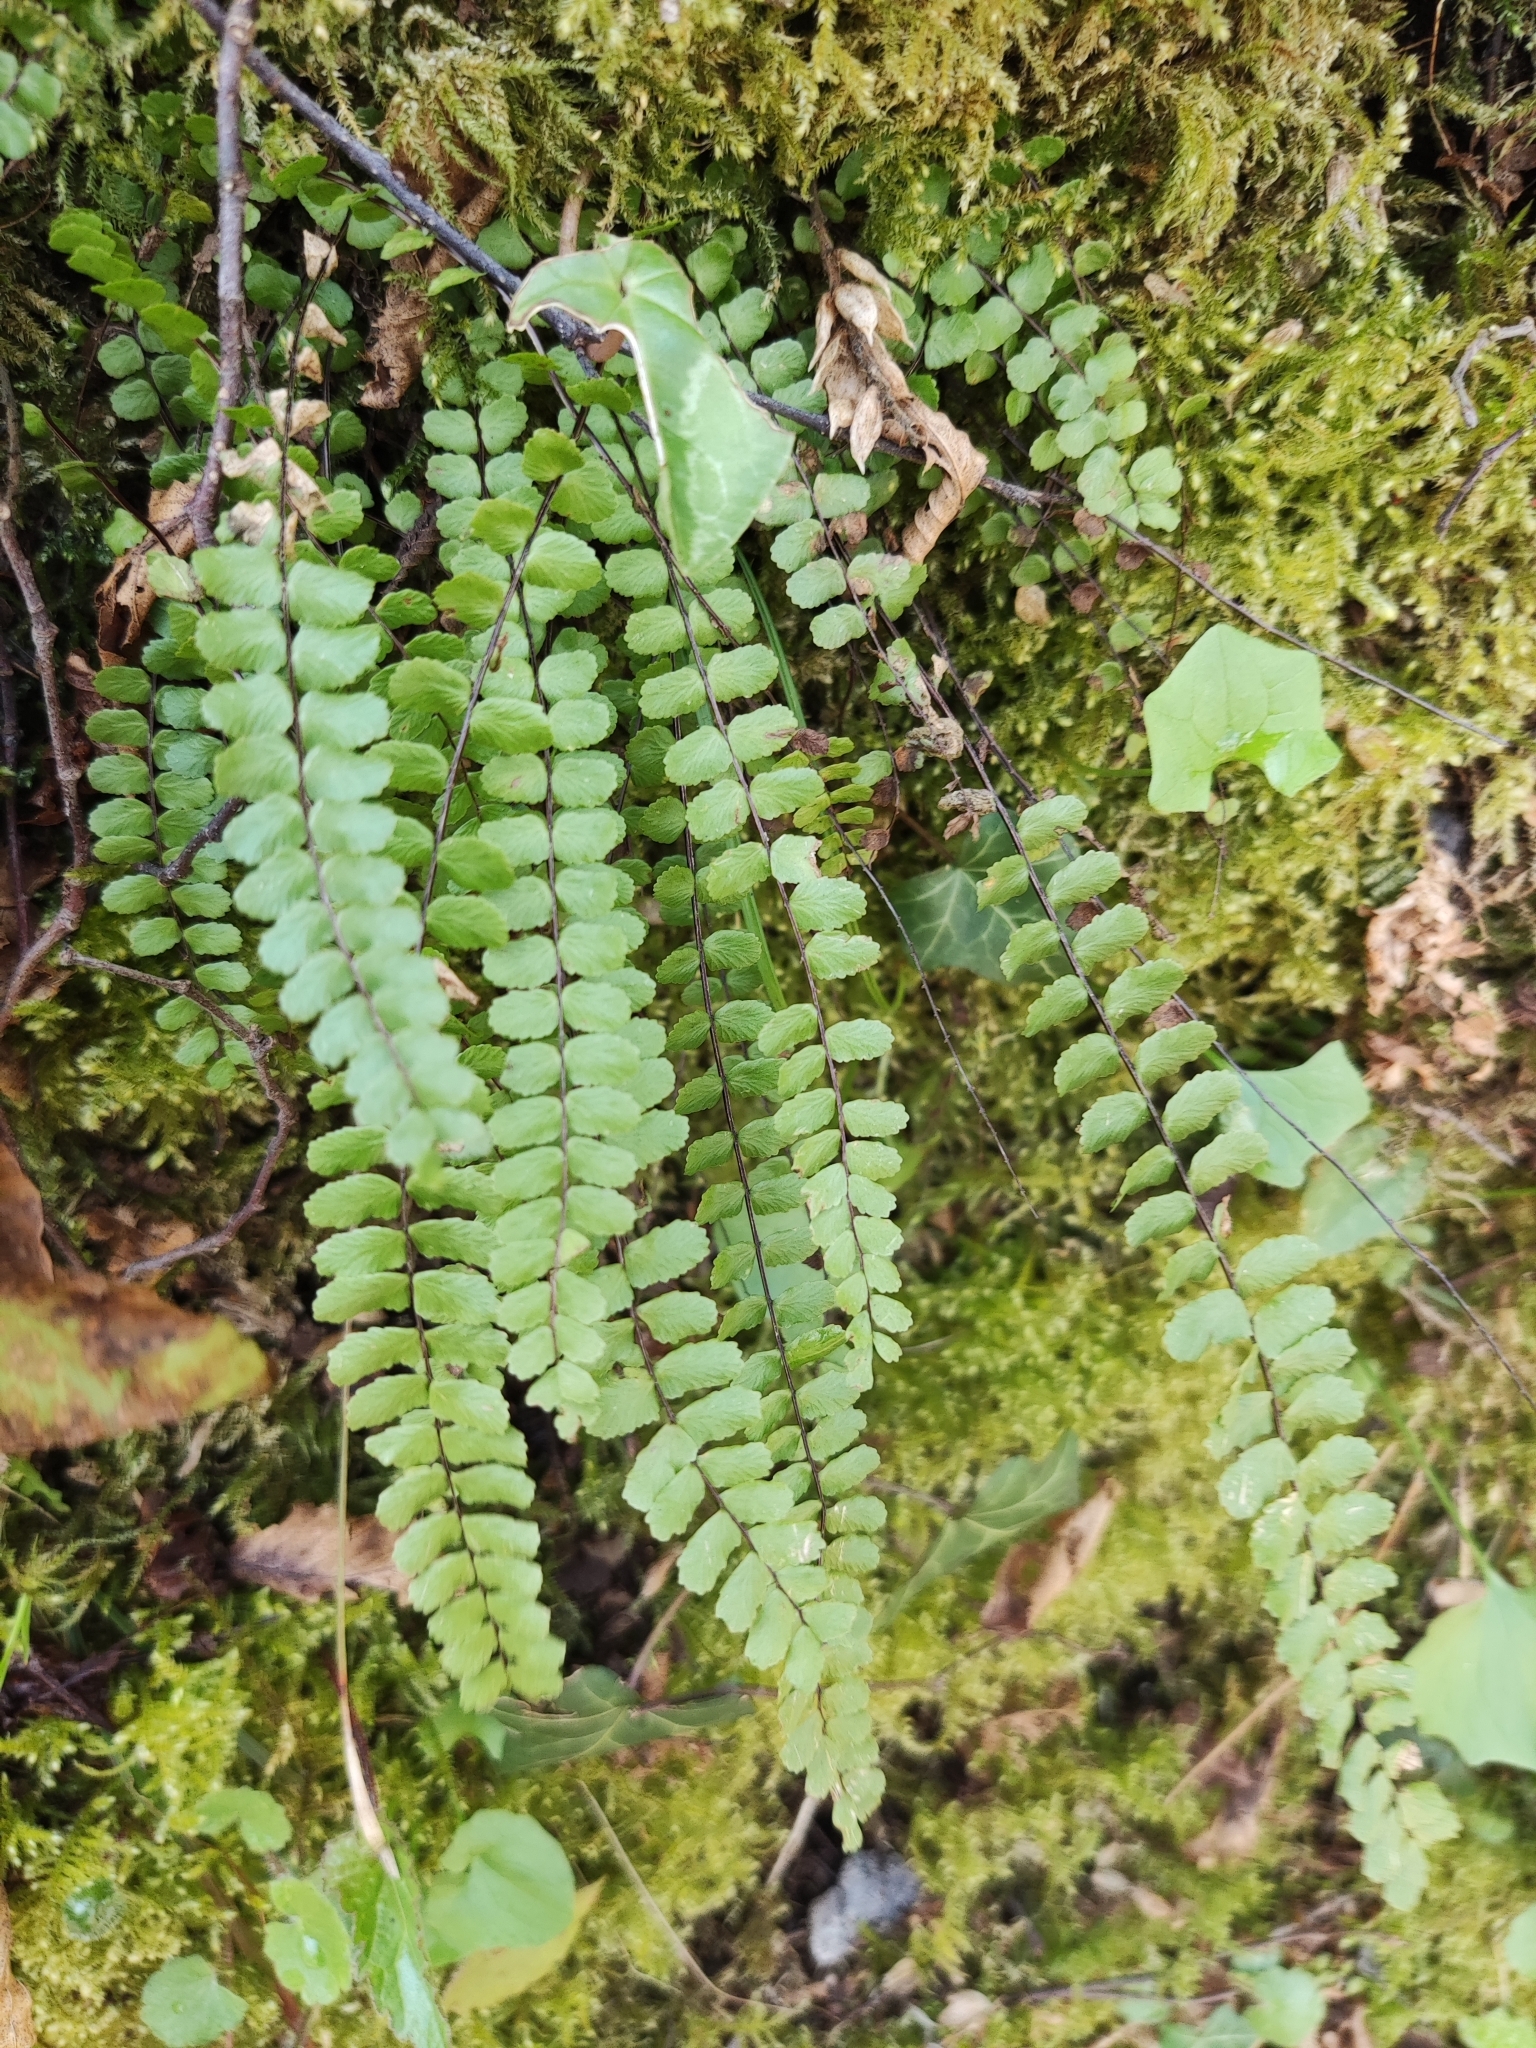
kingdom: Plantae
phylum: Tracheophyta
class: Polypodiopsida
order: Polypodiales
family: Aspleniaceae
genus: Asplenium
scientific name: Asplenium trichomanes
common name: Maidenhair spleenwort
